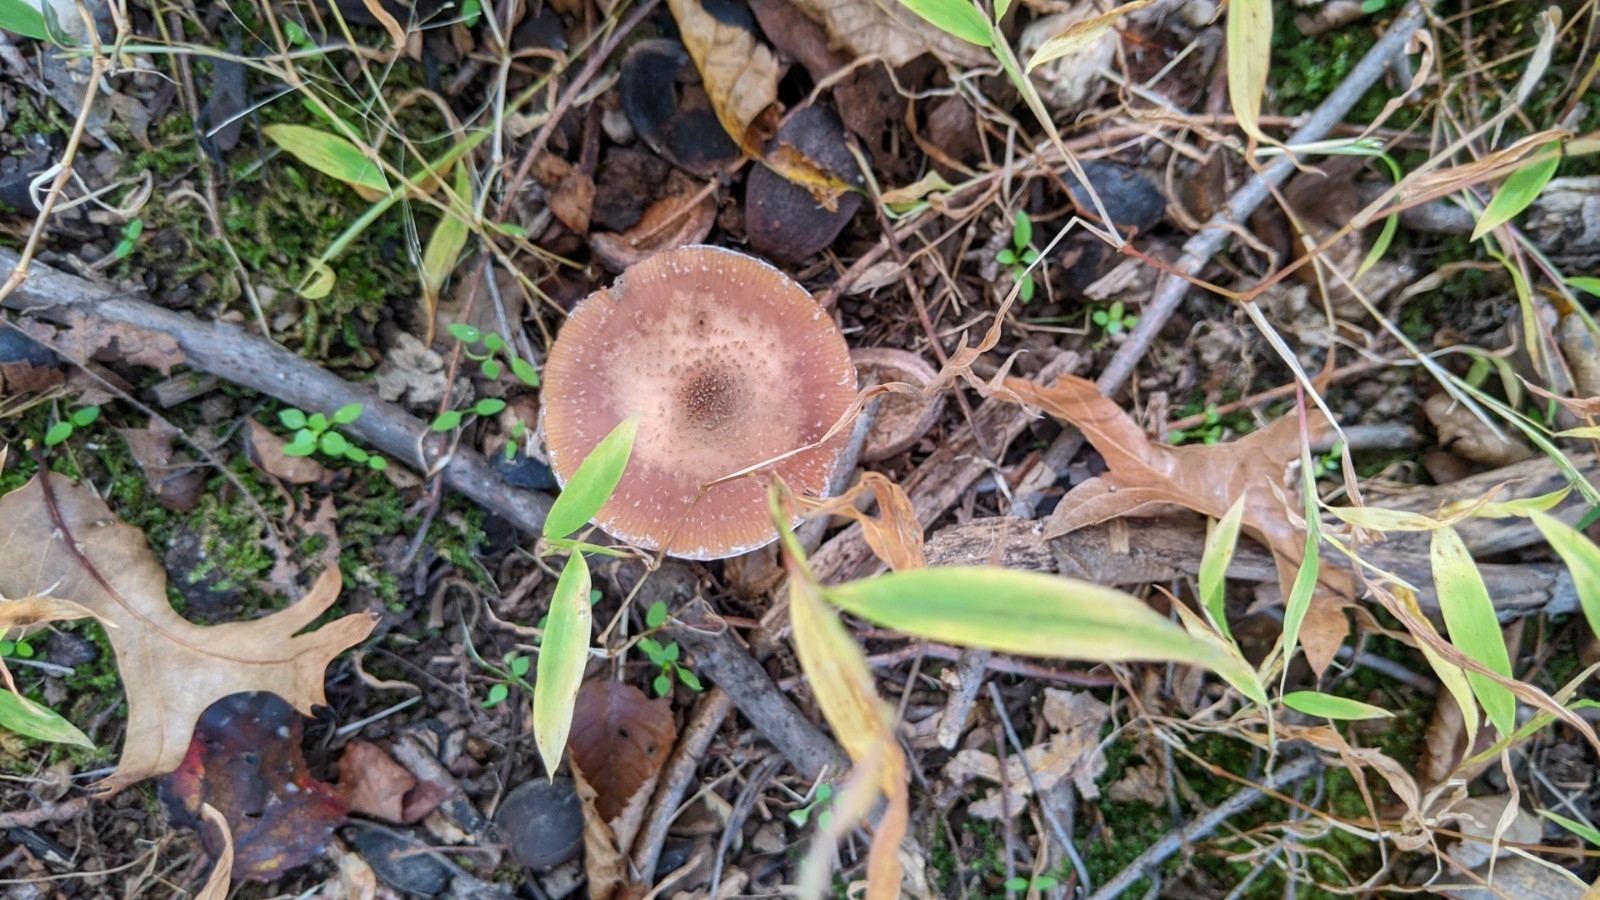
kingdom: Fungi
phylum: Basidiomycota
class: Agaricomycetes
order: Agaricales
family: Physalacriaceae
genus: Armillaria
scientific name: Armillaria gallica
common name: Bulbous honey fungus
